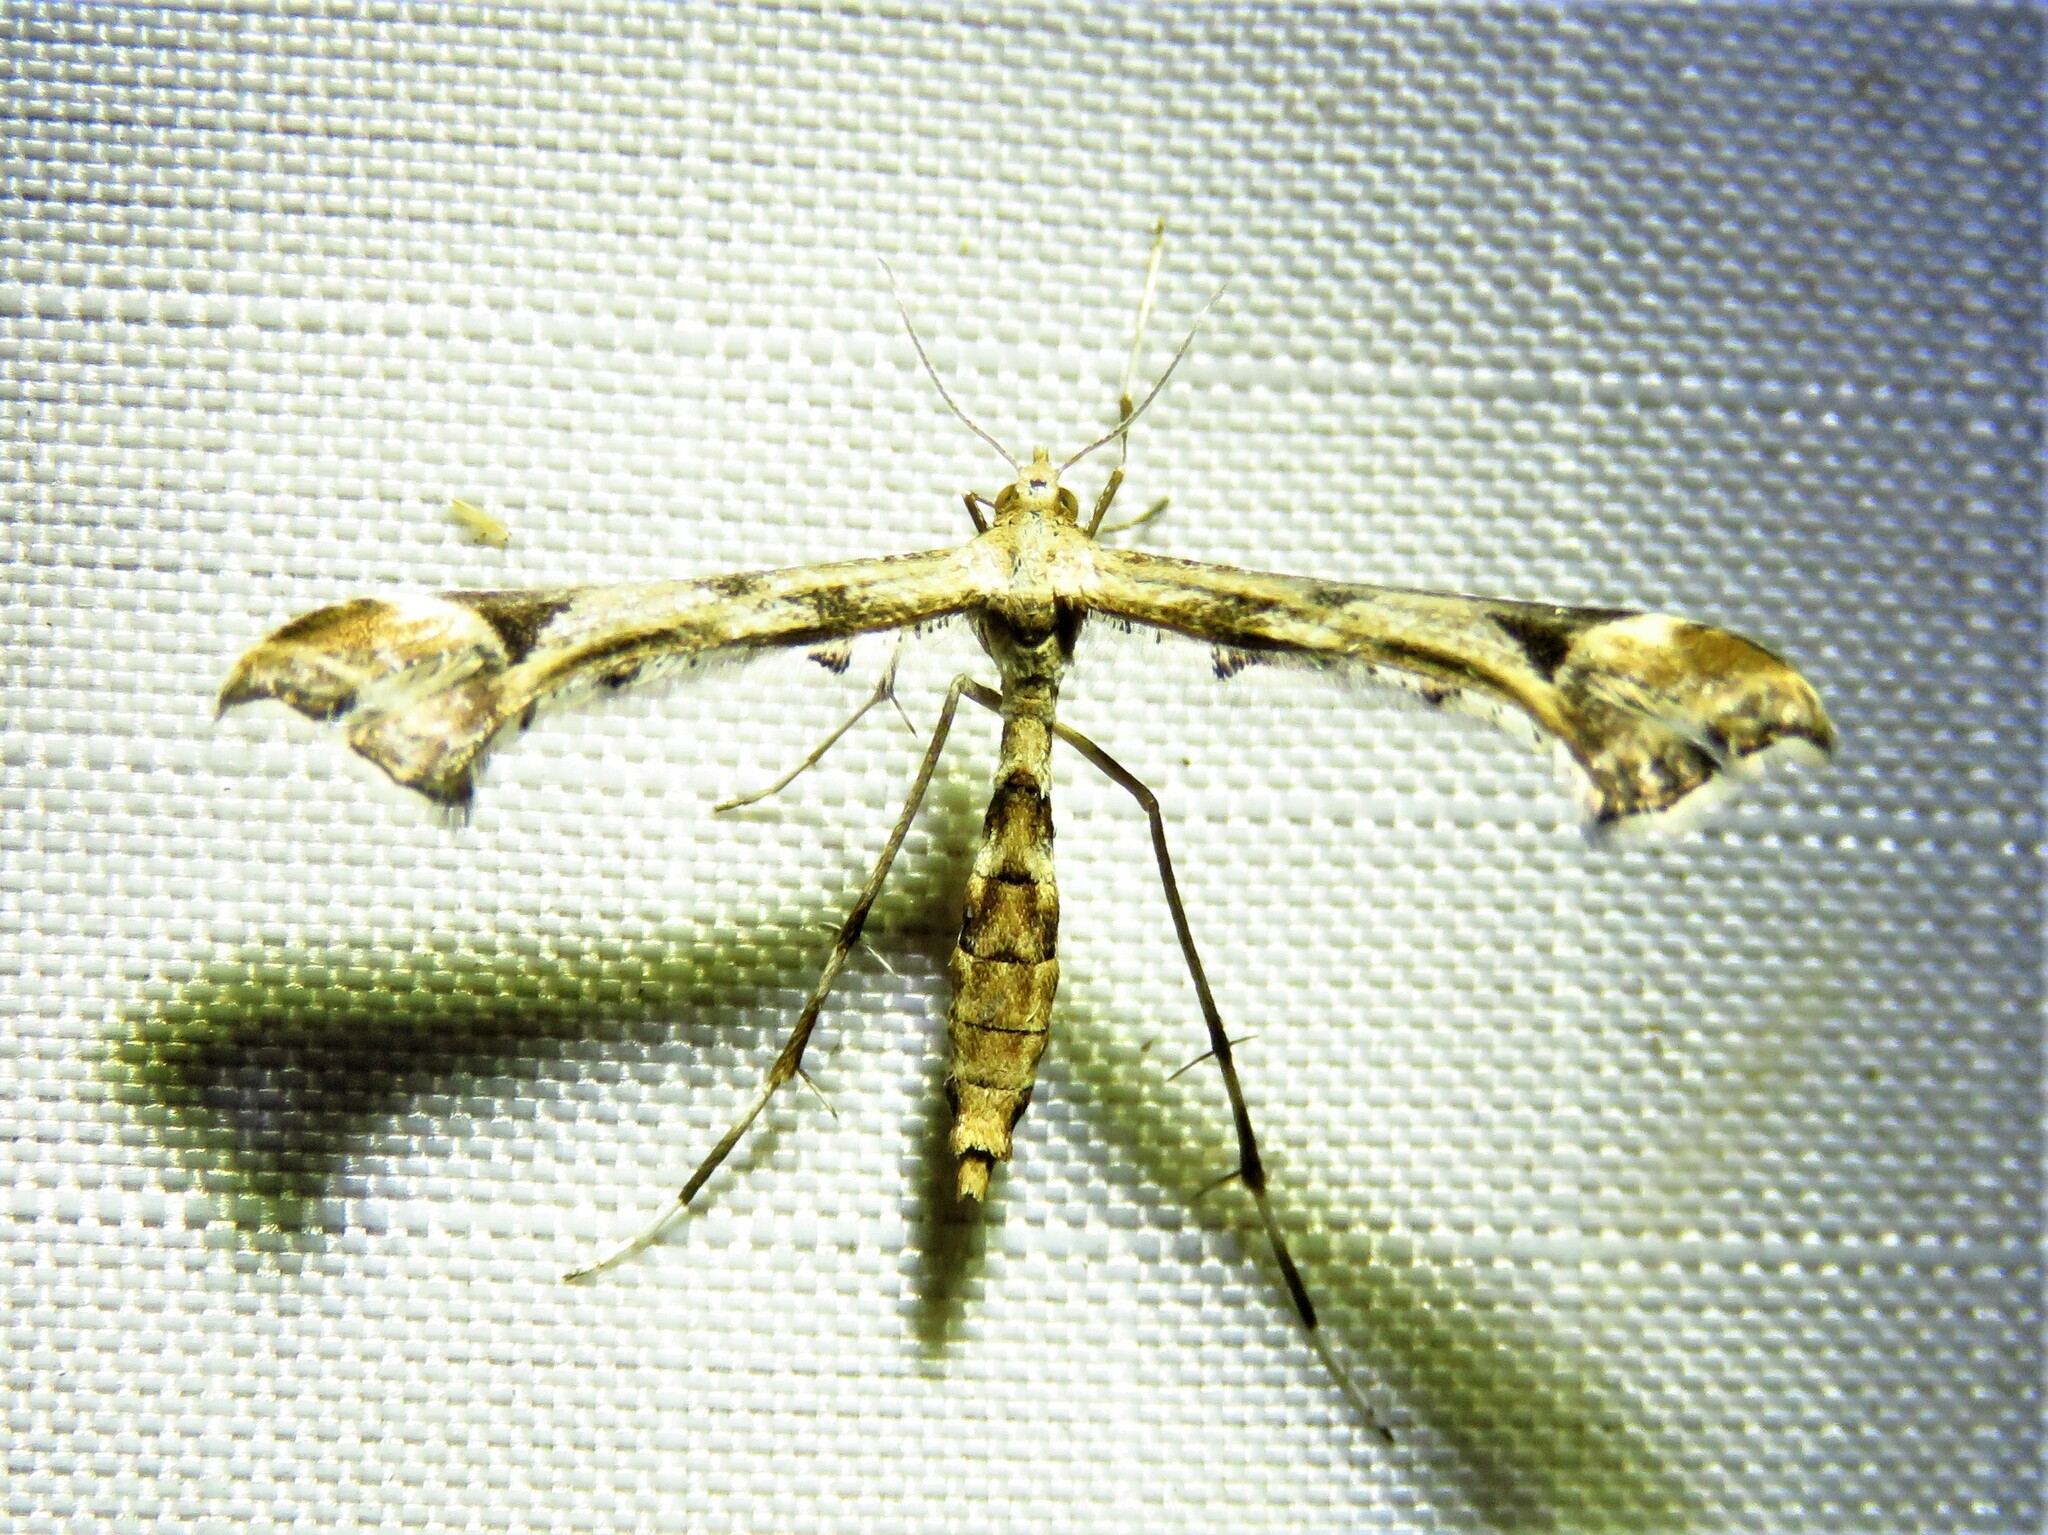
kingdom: Animalia
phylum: Arthropoda
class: Insecta
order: Lepidoptera
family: Pterophoridae
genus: Platyptilia
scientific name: Platyptilia carduidactylus
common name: Artichoke plume moth
